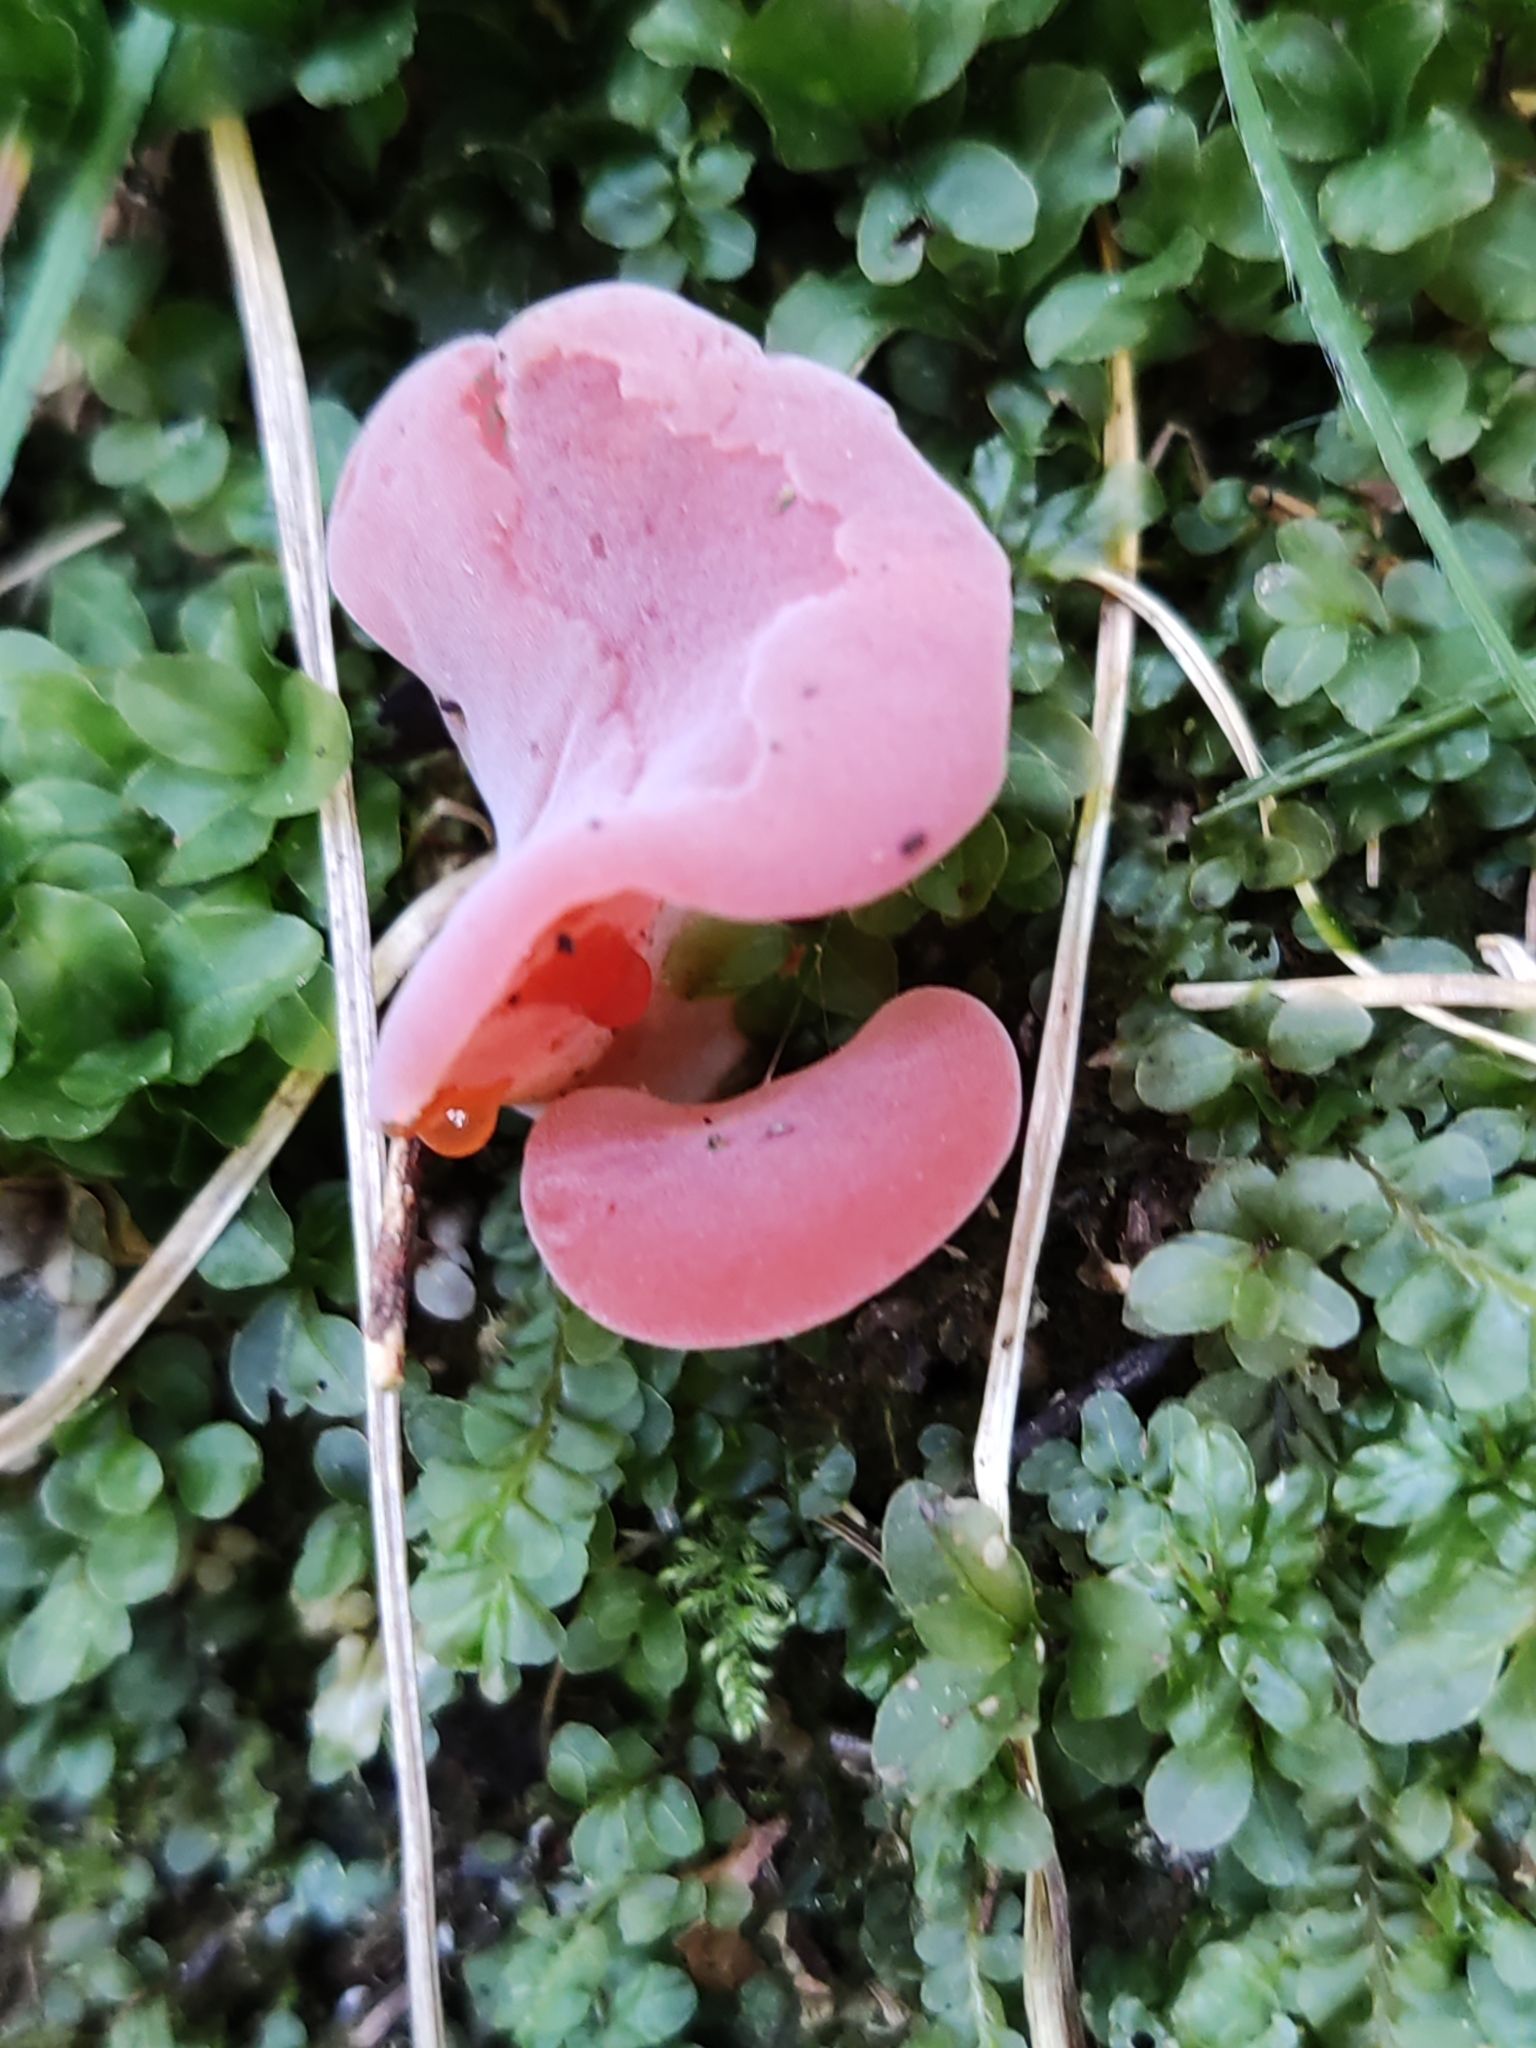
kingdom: Fungi
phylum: Basidiomycota
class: Agaricomycetes
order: Auriculariales
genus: Guepinia
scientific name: Guepinia helvelloides
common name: Salmon salad
